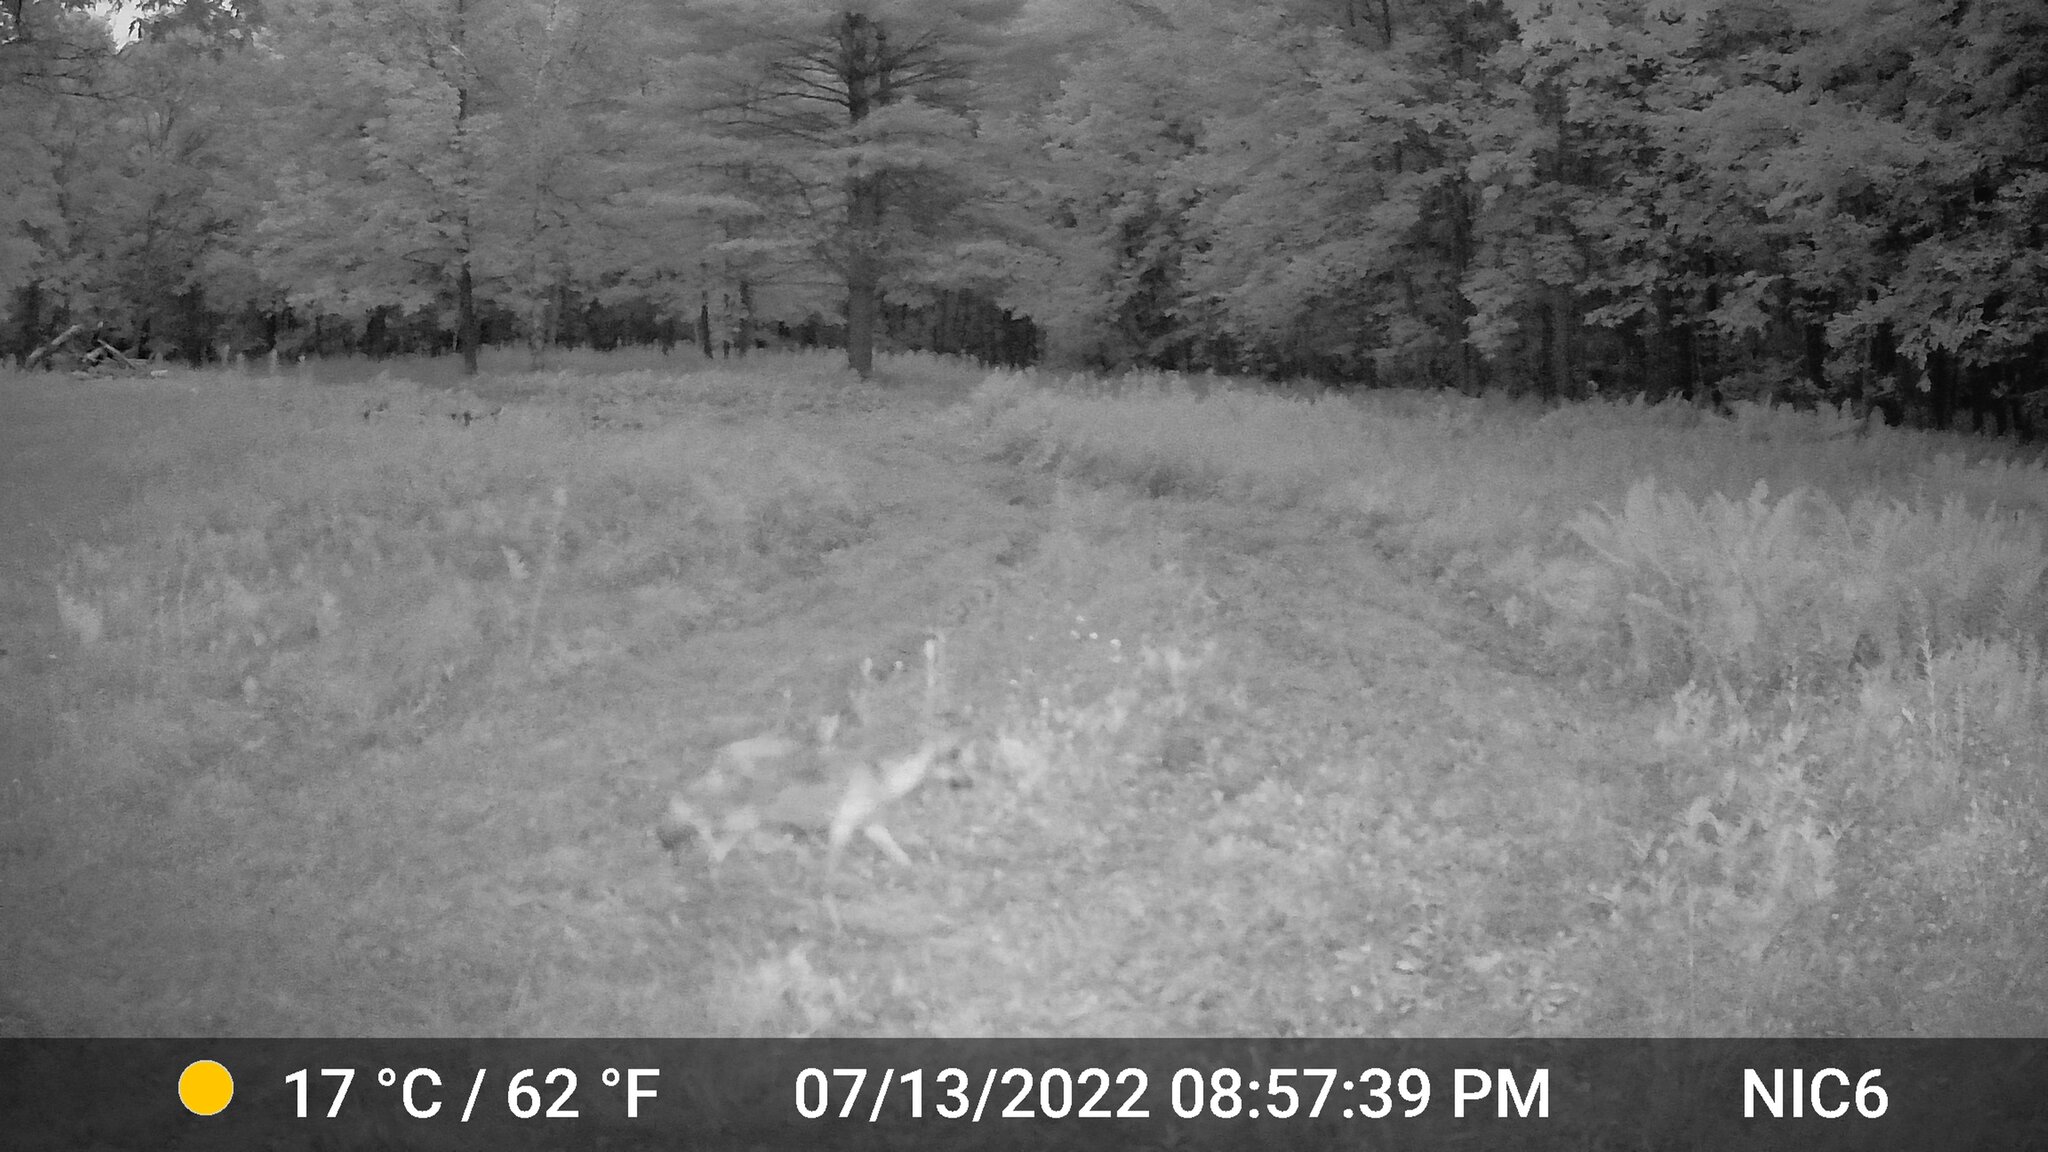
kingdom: Animalia
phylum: Chordata
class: Mammalia
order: Carnivora
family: Canidae
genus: Canis
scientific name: Canis latrans
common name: Coyote
